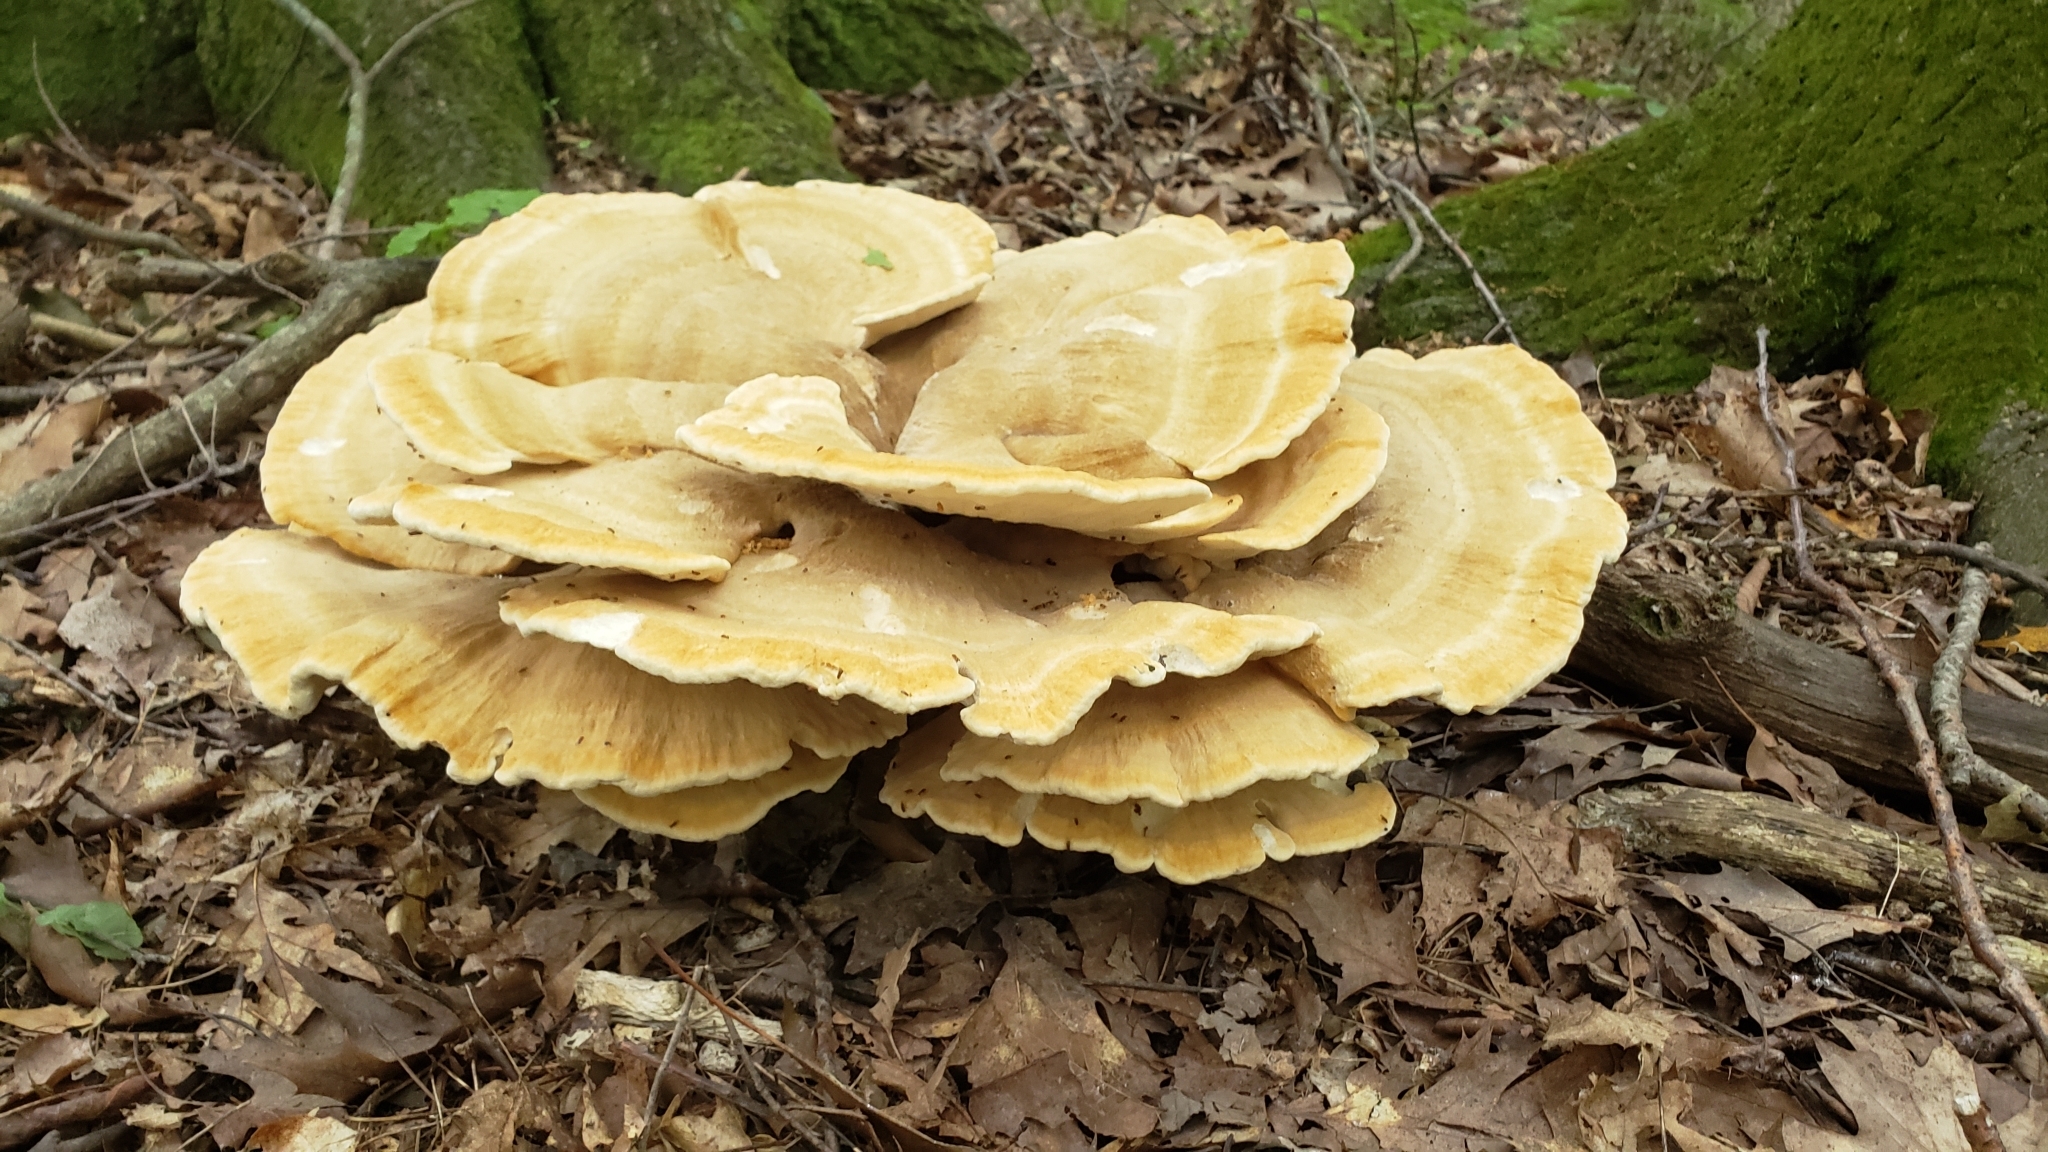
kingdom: Fungi
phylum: Basidiomycota
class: Agaricomycetes
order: Russulales
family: Bondarzewiaceae
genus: Bondarzewia
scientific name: Bondarzewia berkeleyi
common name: Berkeley's polypore
